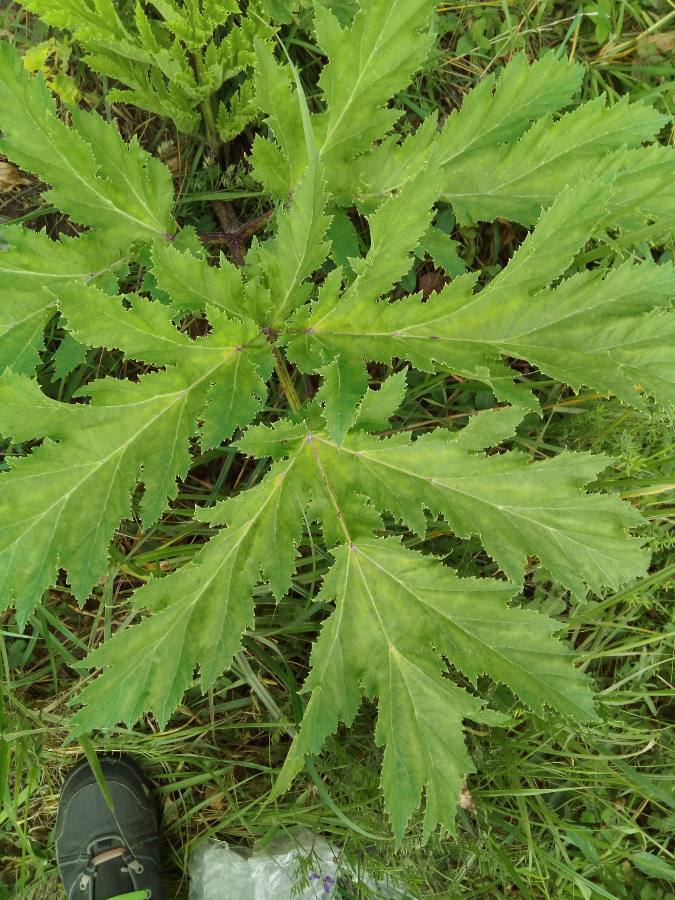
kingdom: Plantae
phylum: Tracheophyta
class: Magnoliopsida
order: Apiales
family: Apiaceae
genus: Heracleum
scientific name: Heracleum sosnowskyi
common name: Sosnowsky's hogweed
